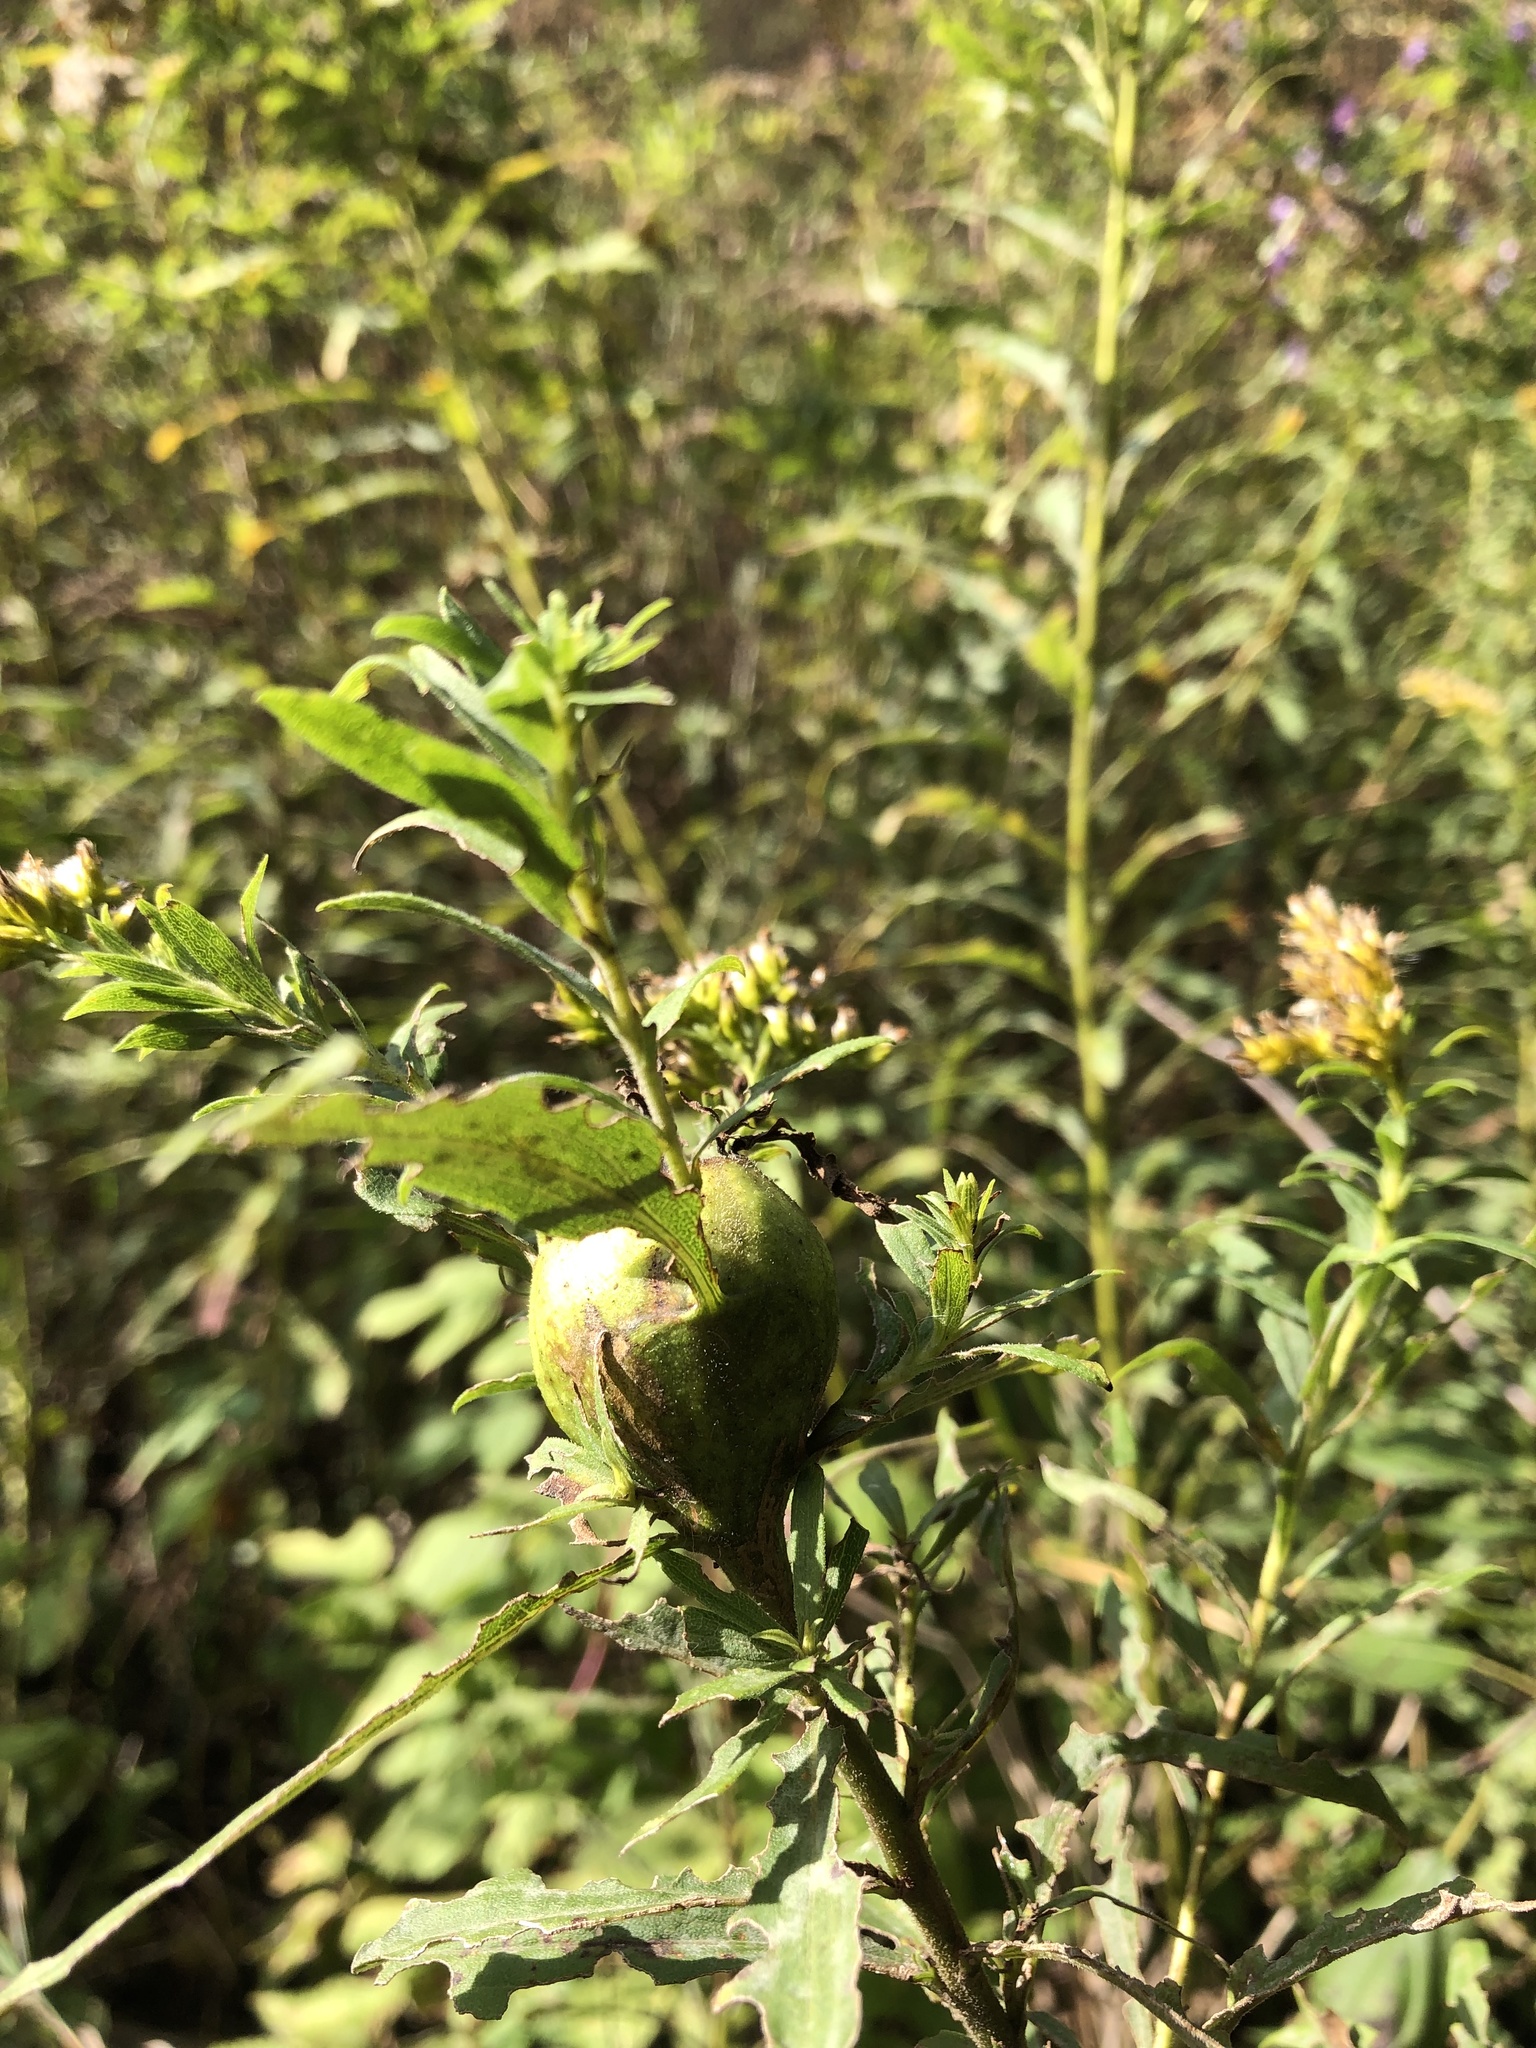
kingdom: Animalia
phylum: Arthropoda
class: Insecta
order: Diptera
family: Tephritidae
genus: Eurosta
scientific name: Eurosta solidaginis
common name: Goldenrod gall fly
